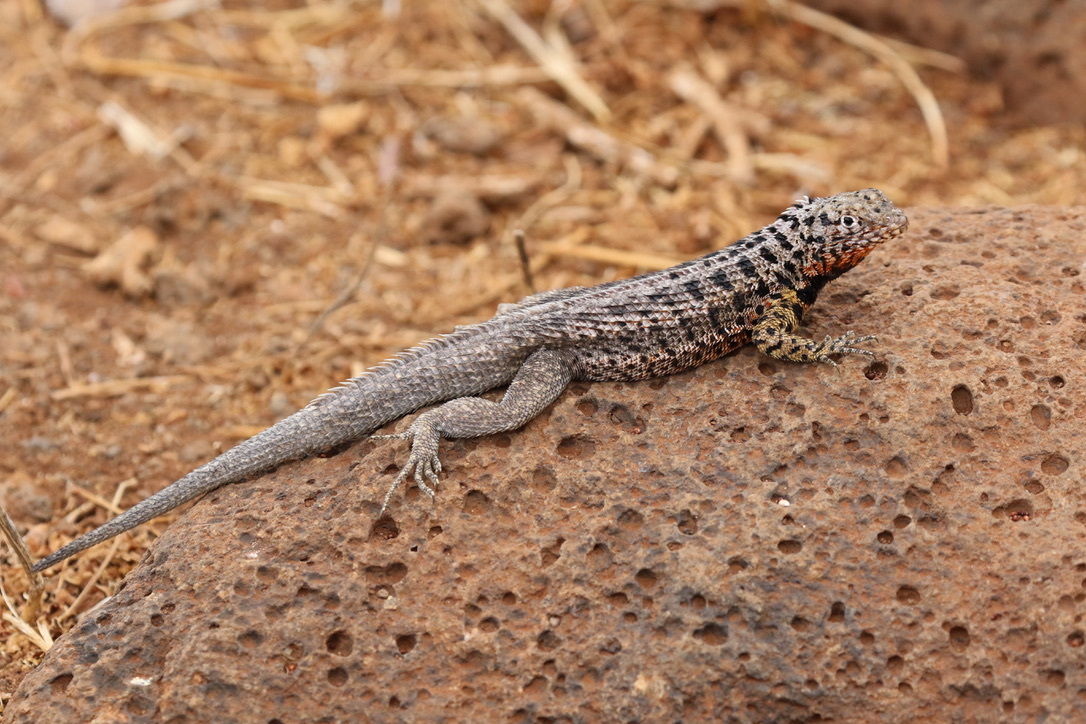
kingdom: Animalia
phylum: Chordata
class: Squamata
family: Tropiduridae
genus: Microlophus
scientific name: Microlophus indefatigabilis
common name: Galapagos lava lizard
